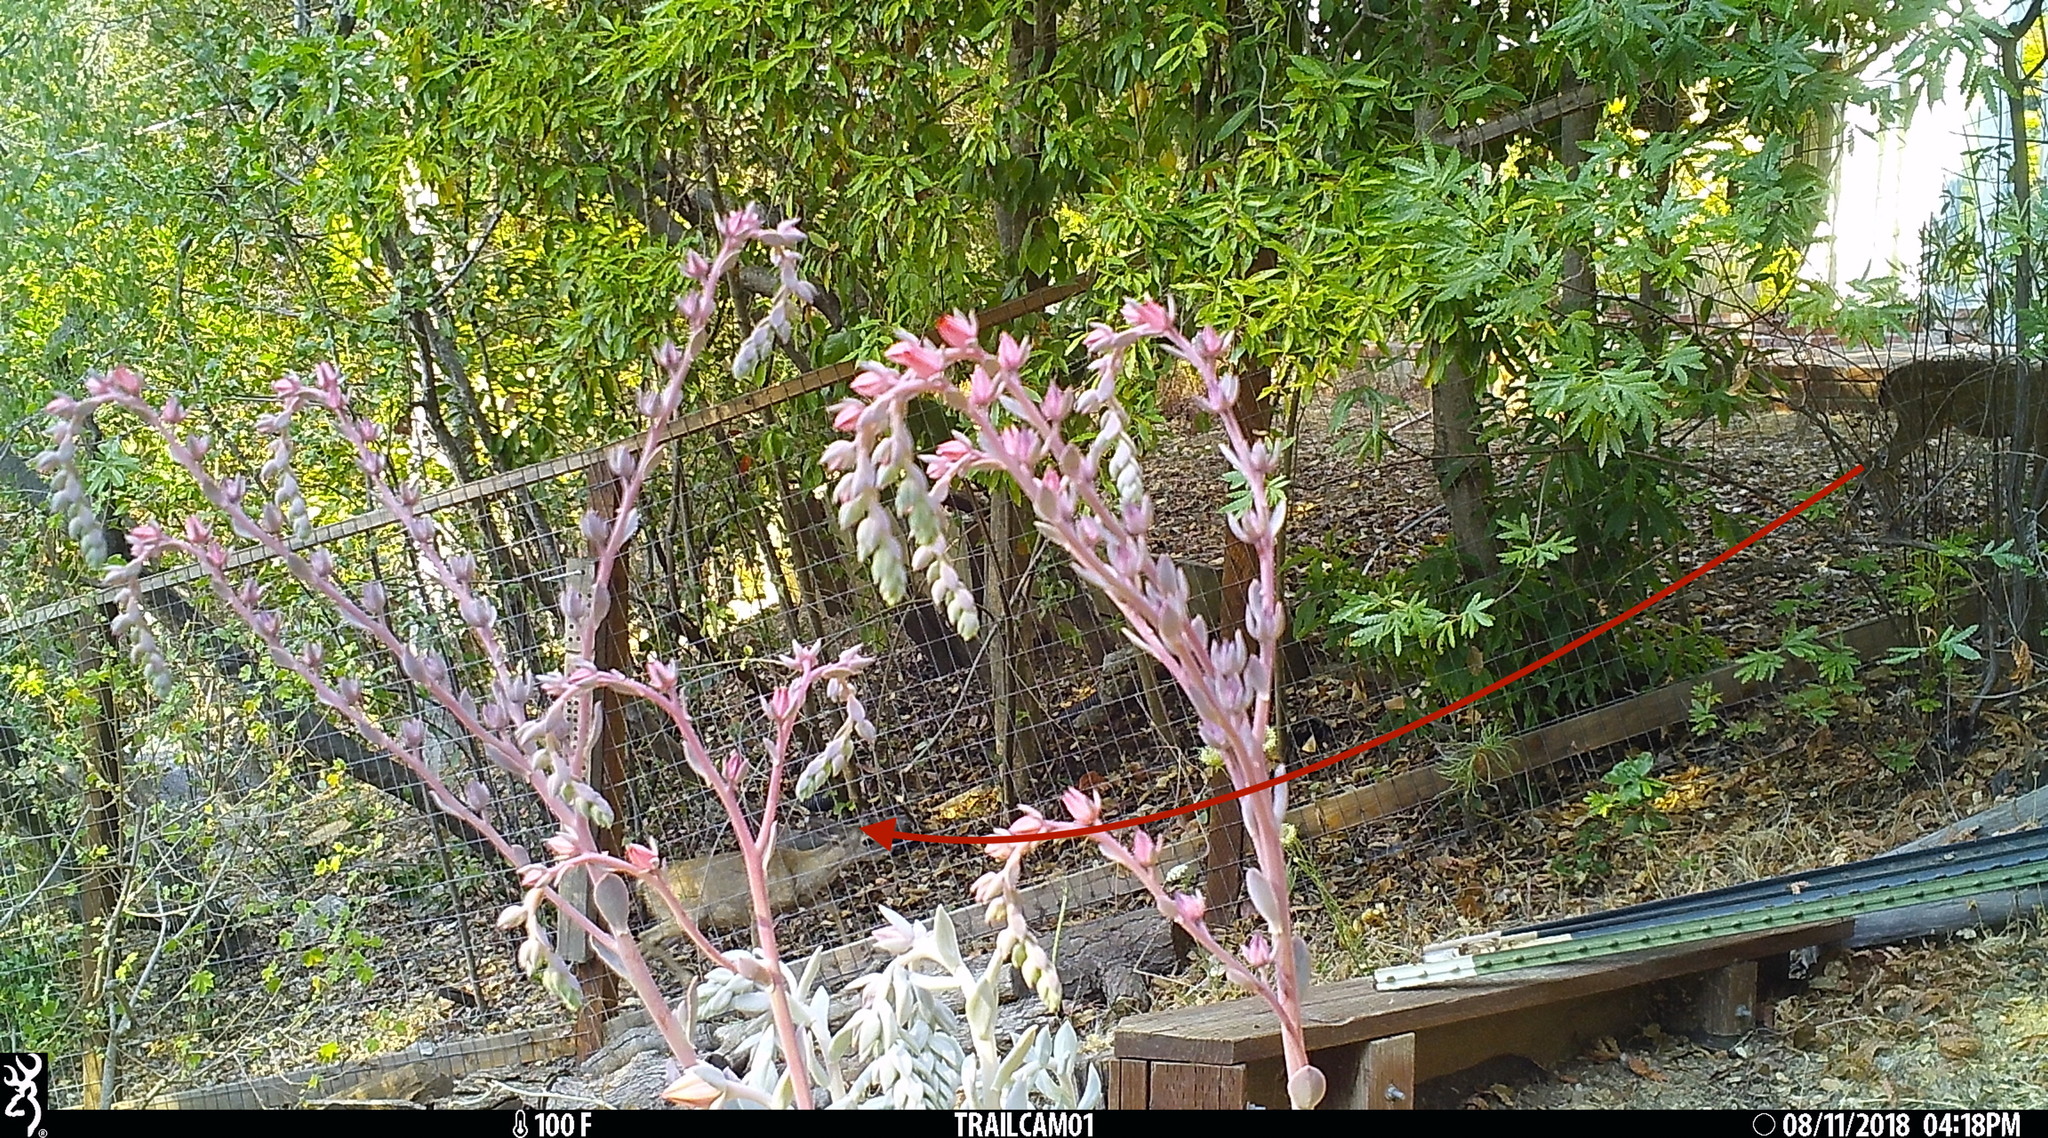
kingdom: Animalia
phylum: Chordata
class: Mammalia
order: Artiodactyla
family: Cervidae
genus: Odocoileus
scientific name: Odocoileus hemionus
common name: Mule deer
